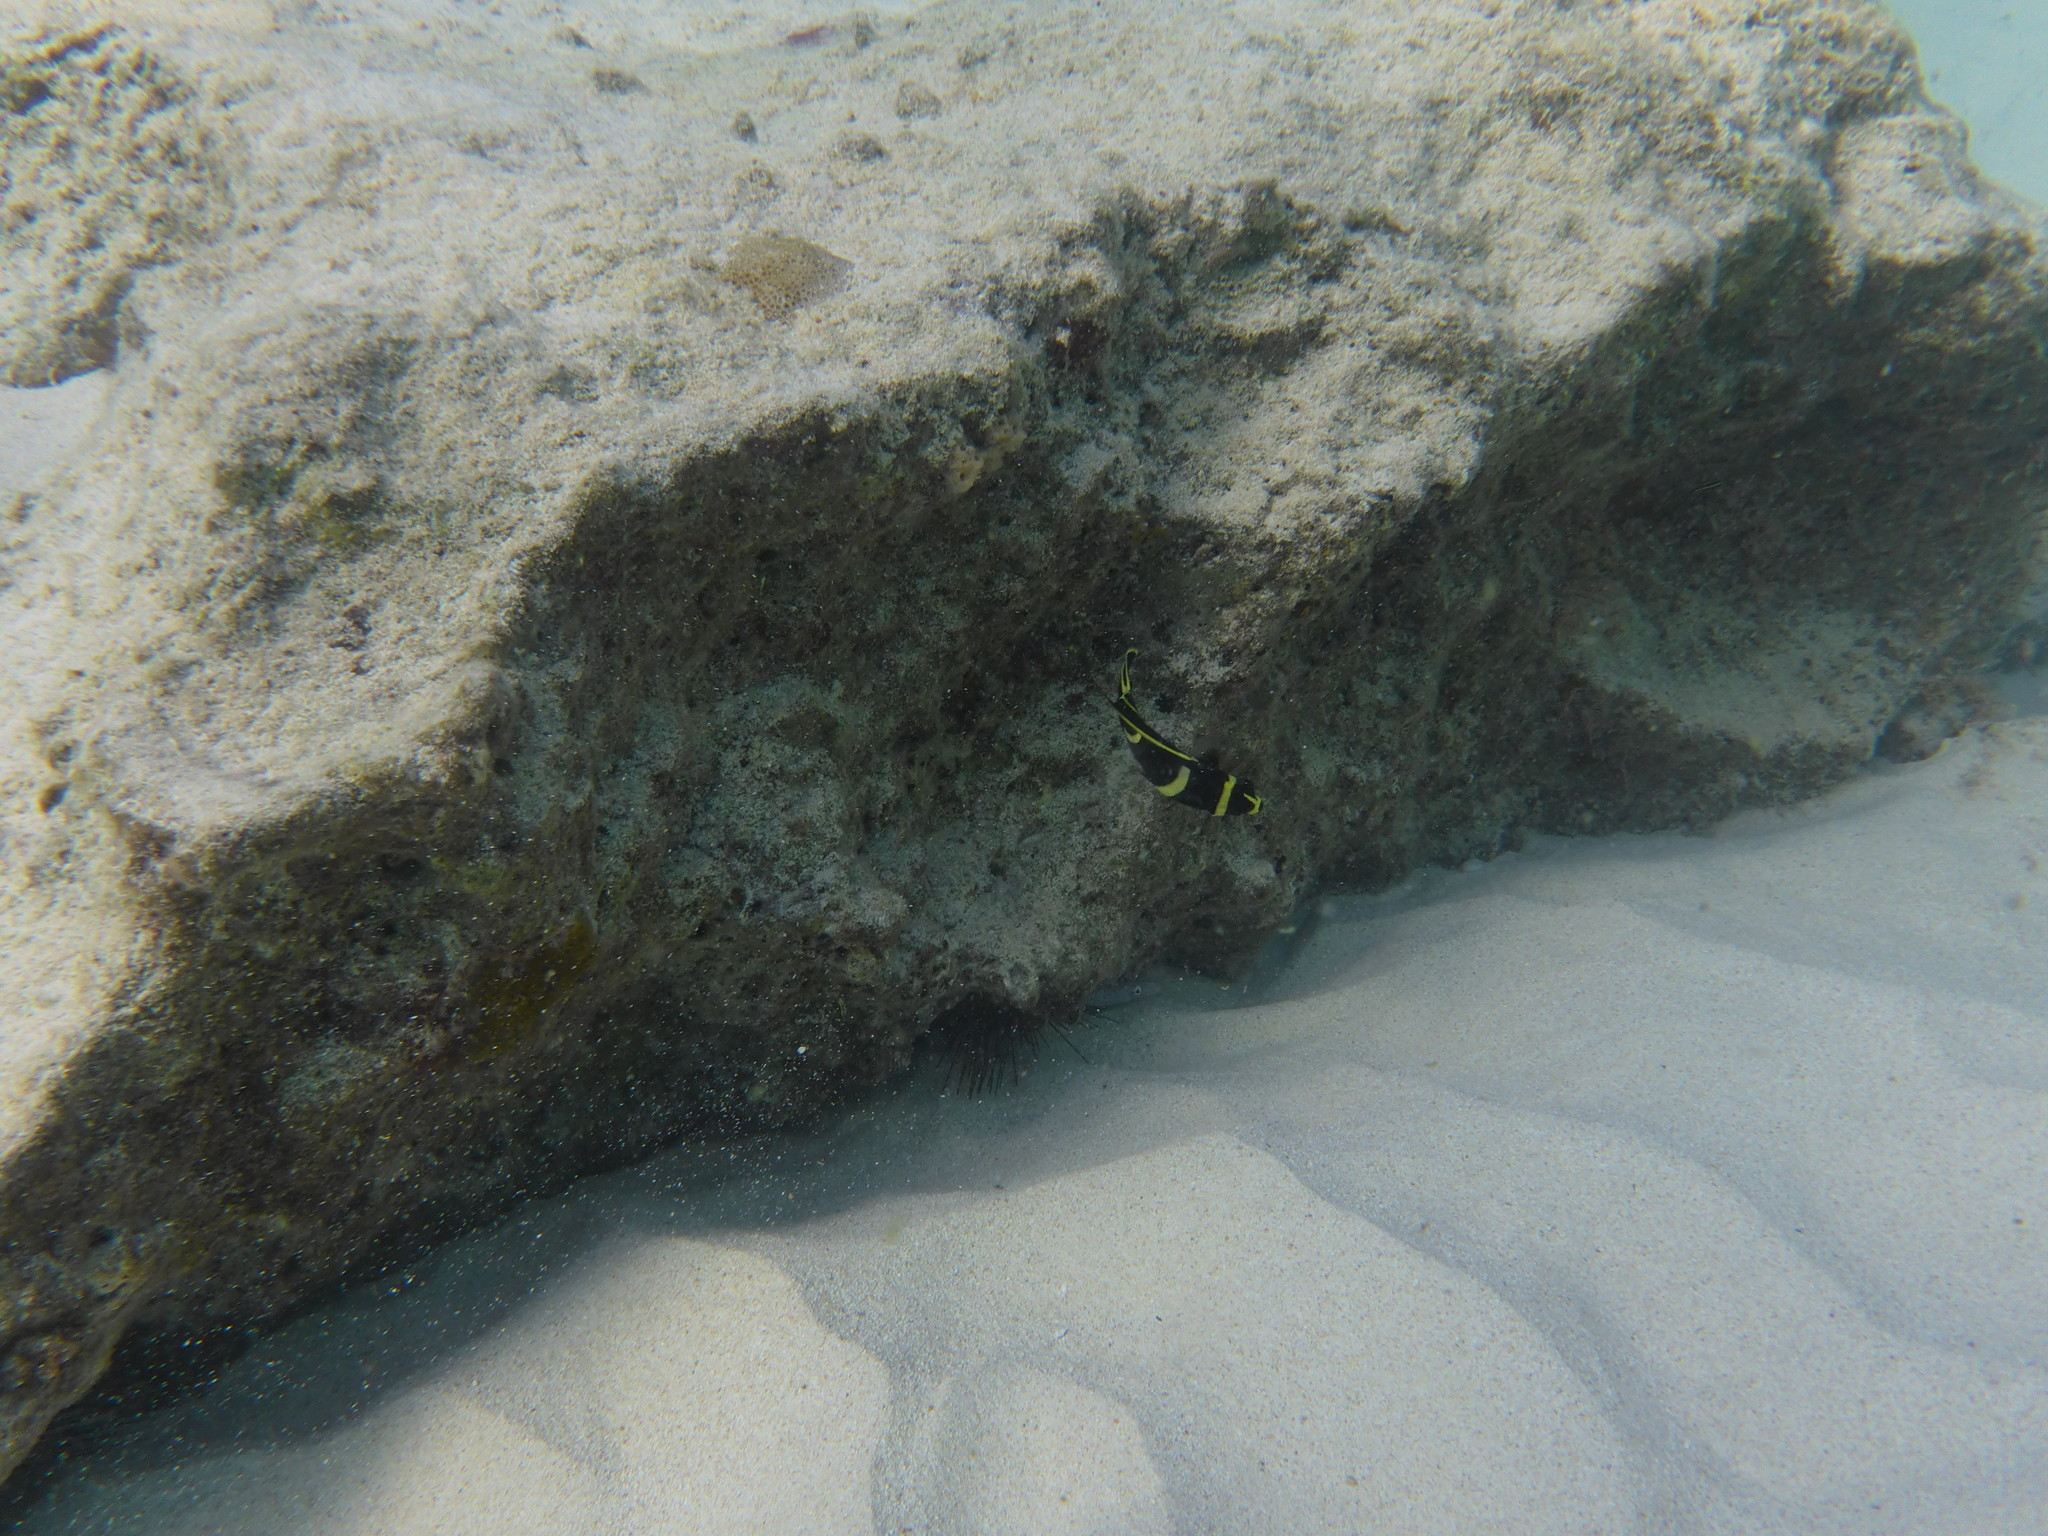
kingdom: Animalia
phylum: Chordata
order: Perciformes
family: Pomacanthidae
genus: Pomacanthus
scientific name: Pomacanthus paru
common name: French angelfish
